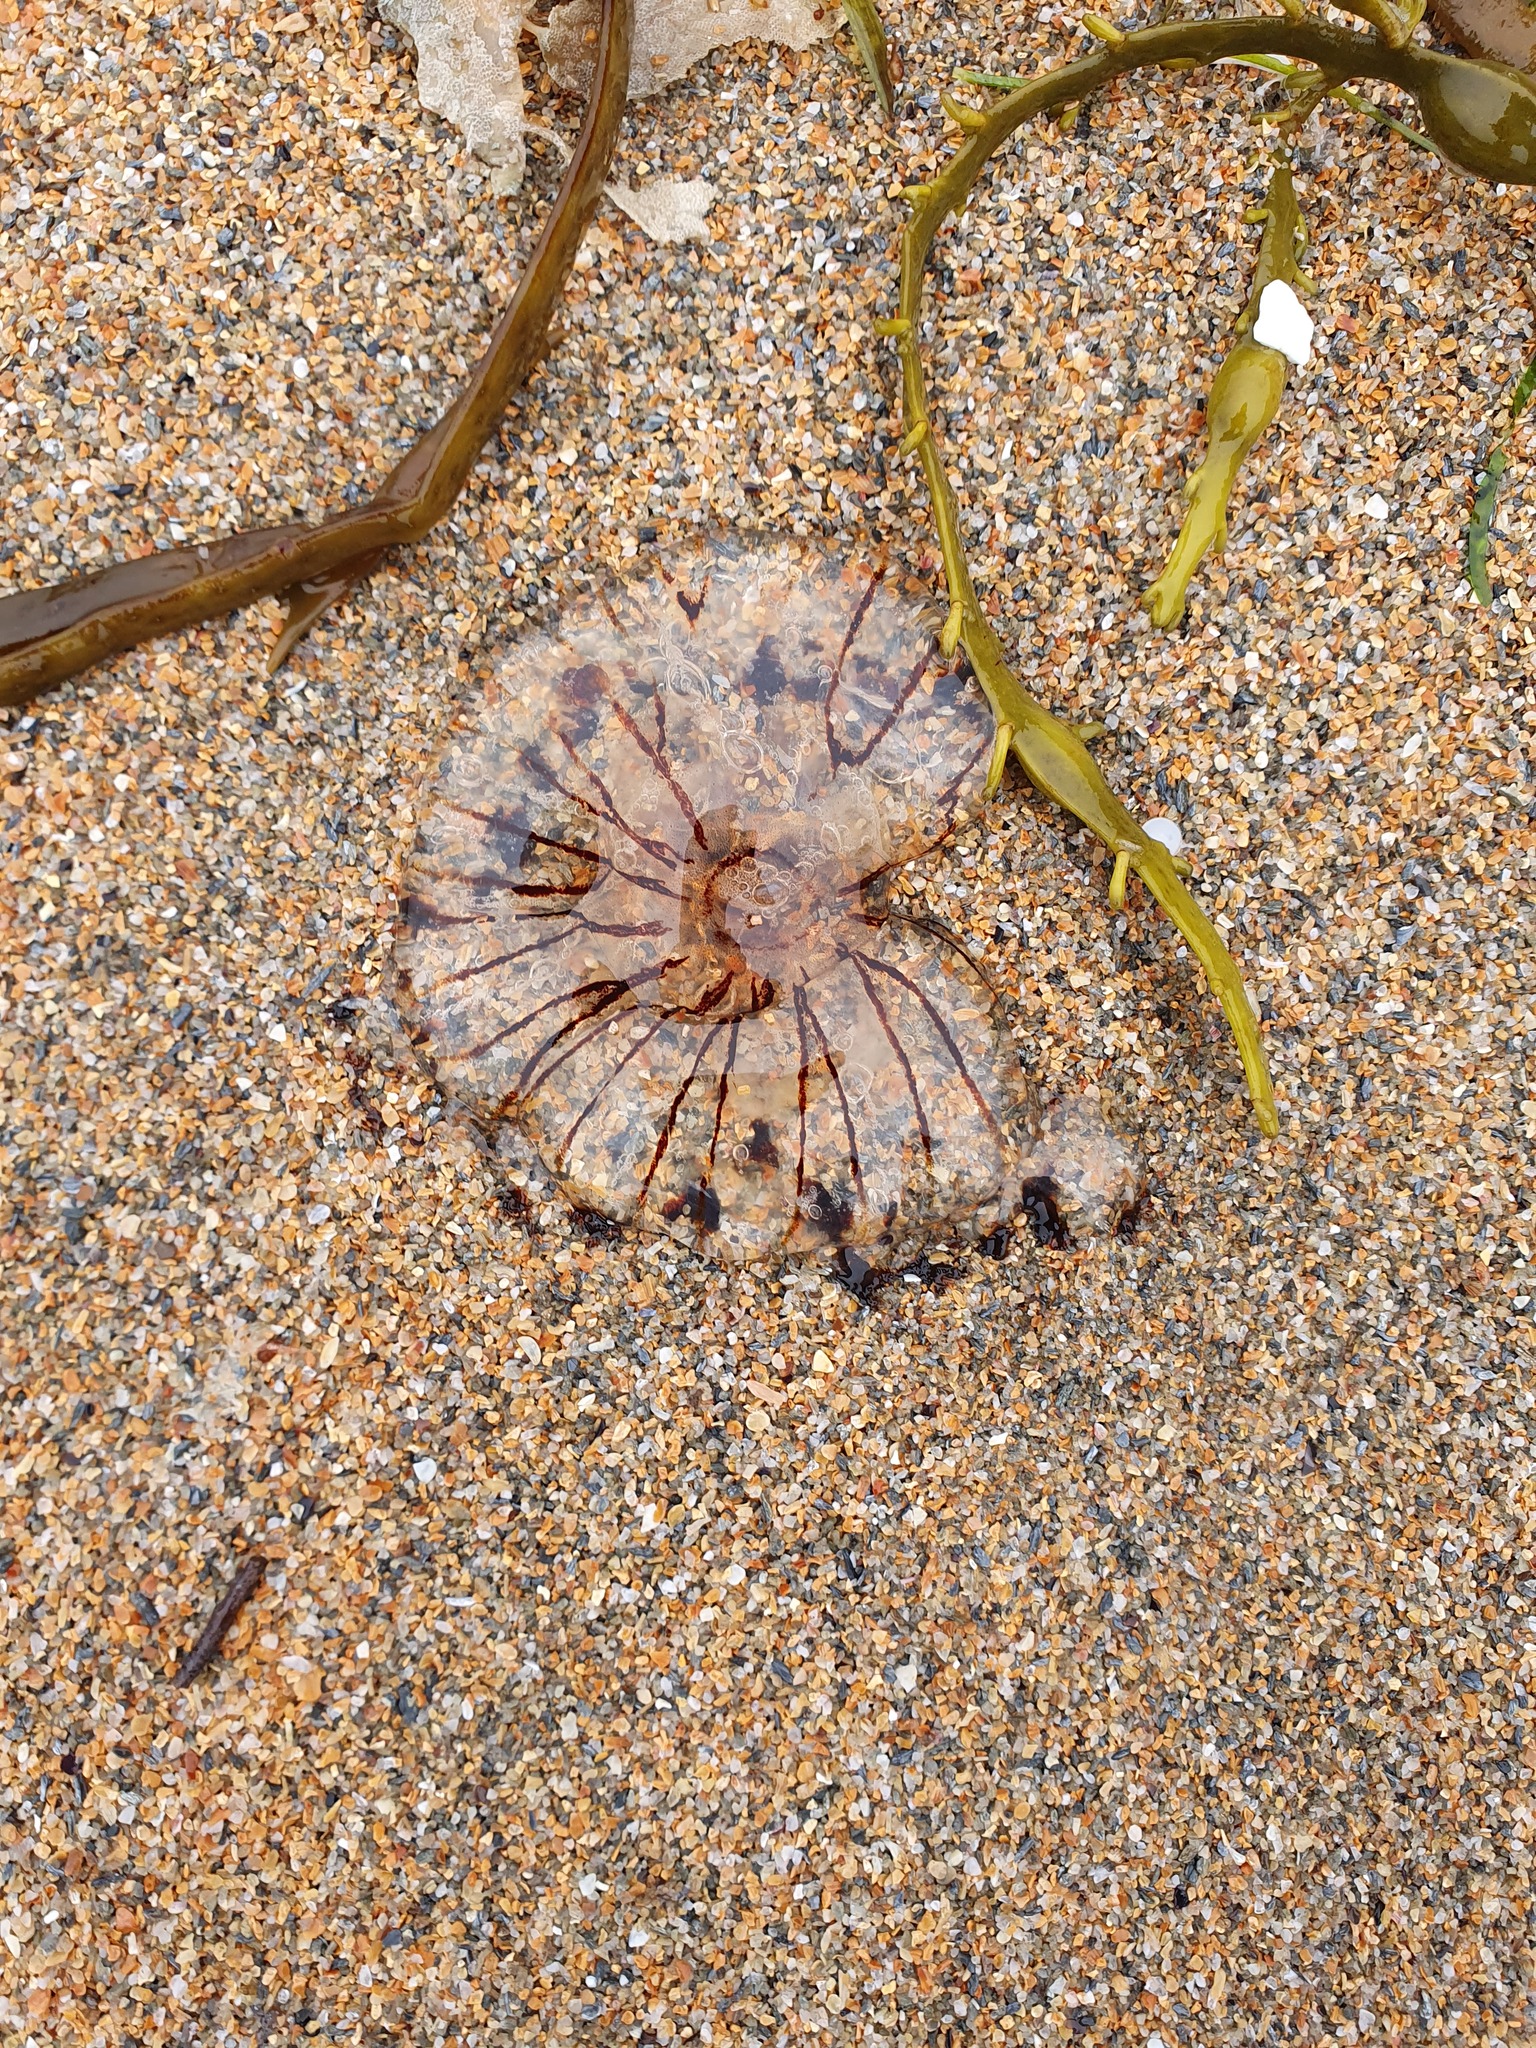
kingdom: Animalia
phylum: Cnidaria
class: Scyphozoa
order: Semaeostomeae
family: Pelagiidae
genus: Chrysaora
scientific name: Chrysaora hysoscella
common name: Compass jellyfish
